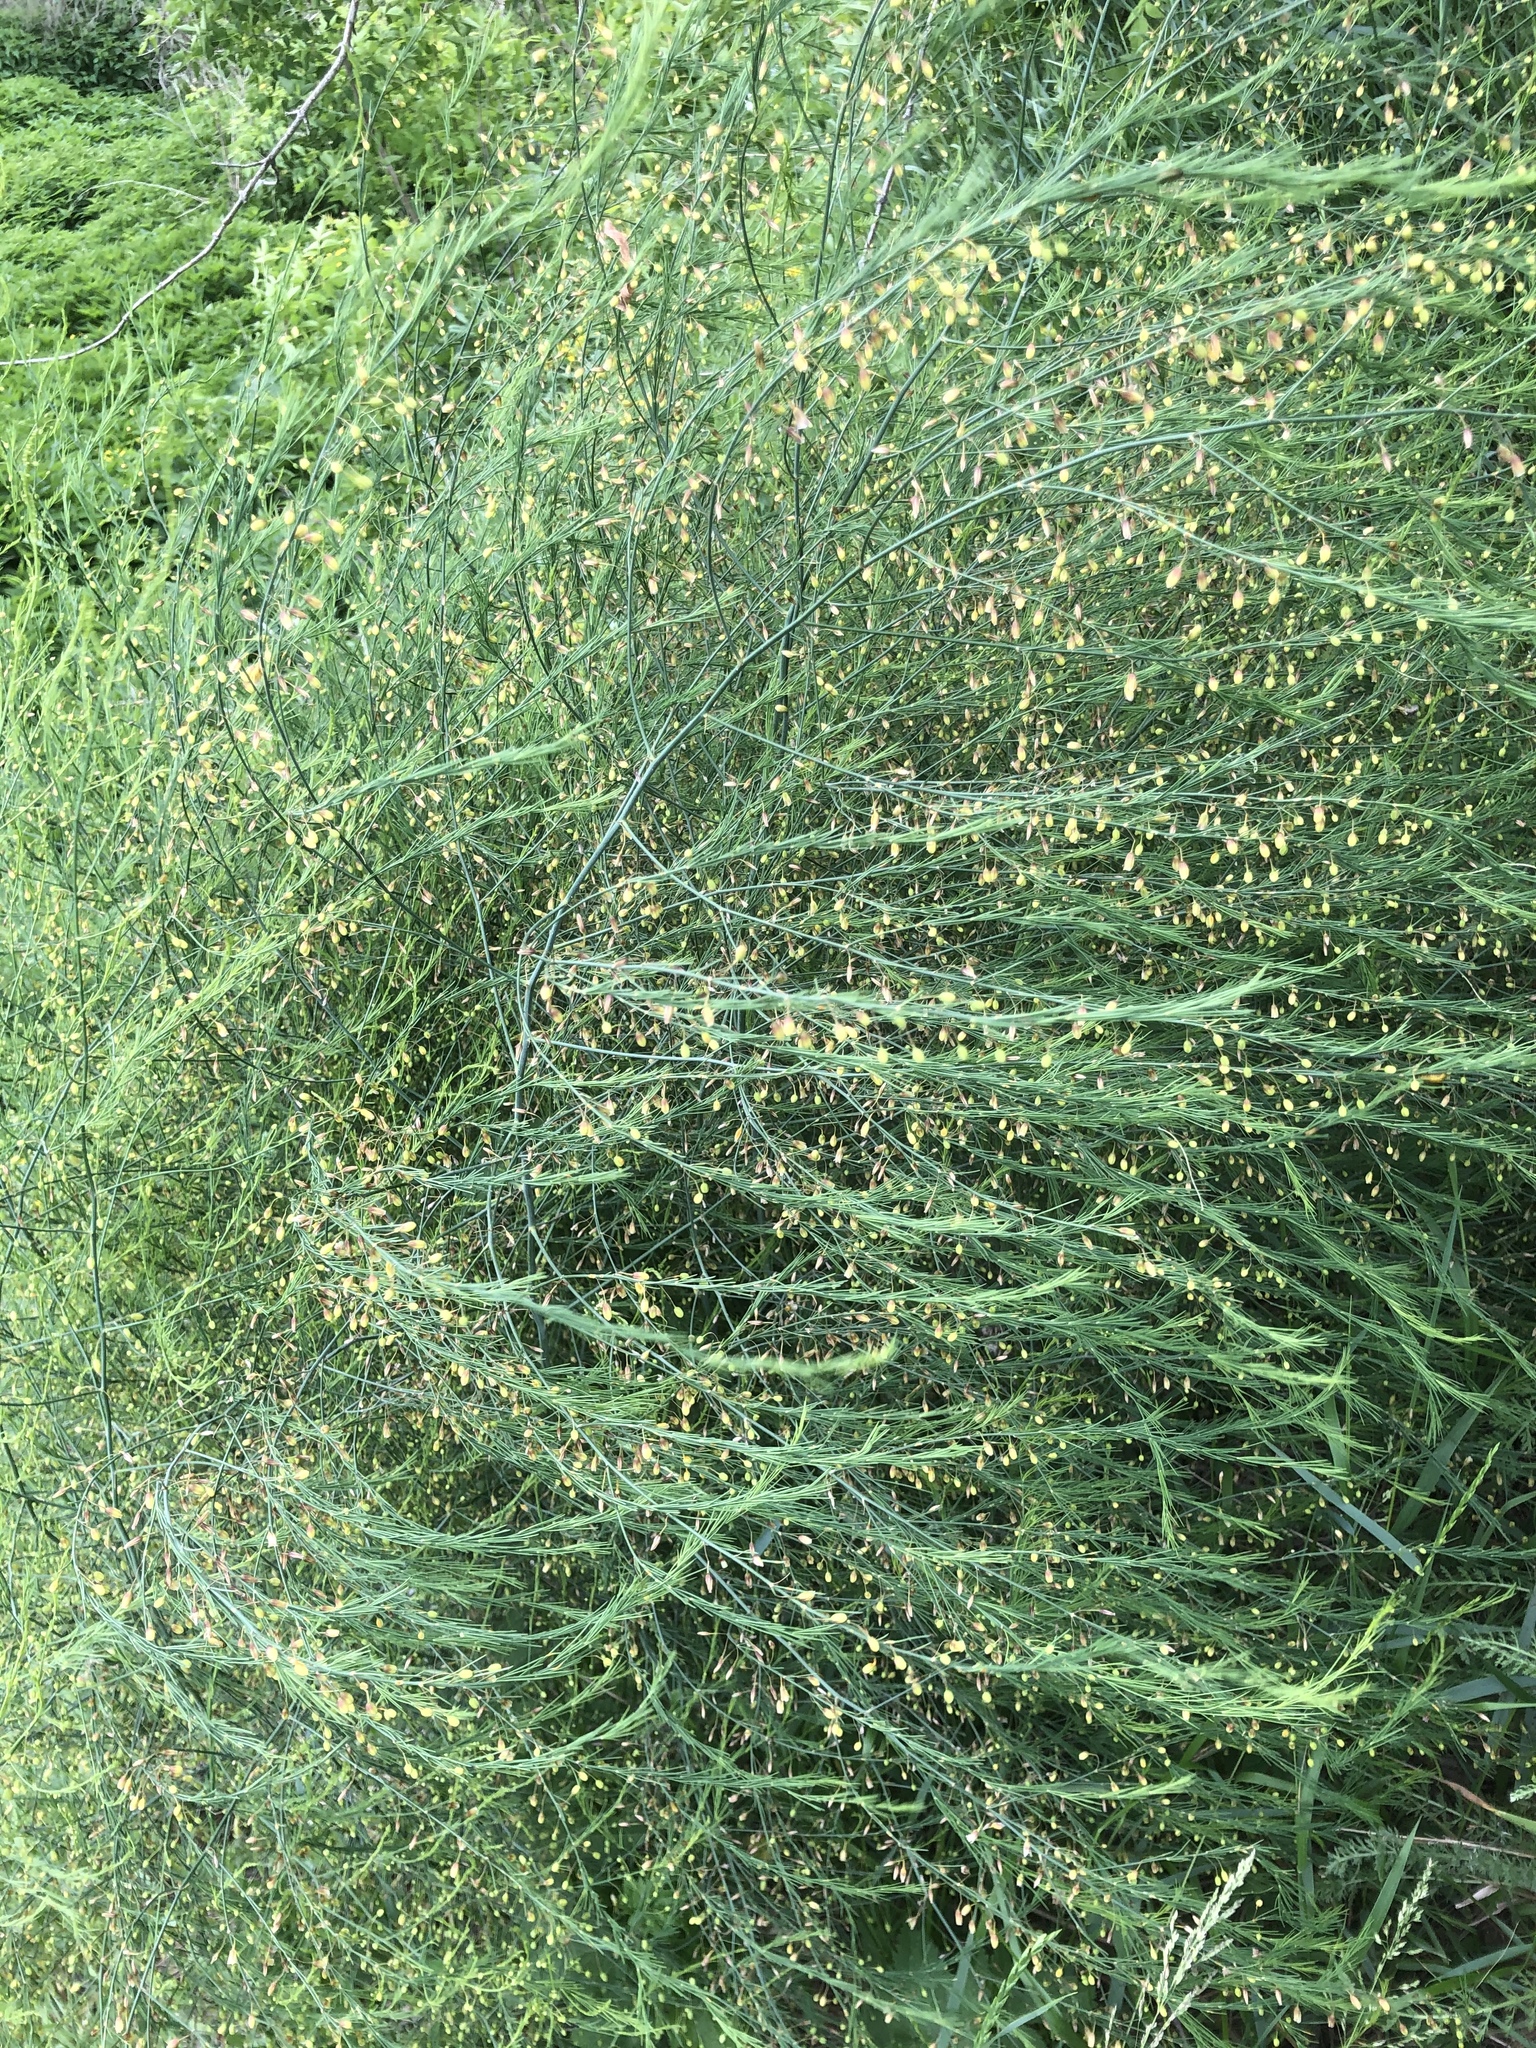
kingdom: Plantae
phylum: Tracheophyta
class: Liliopsida
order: Asparagales
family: Asparagaceae
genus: Asparagus
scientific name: Asparagus officinalis
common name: Garden asparagus
